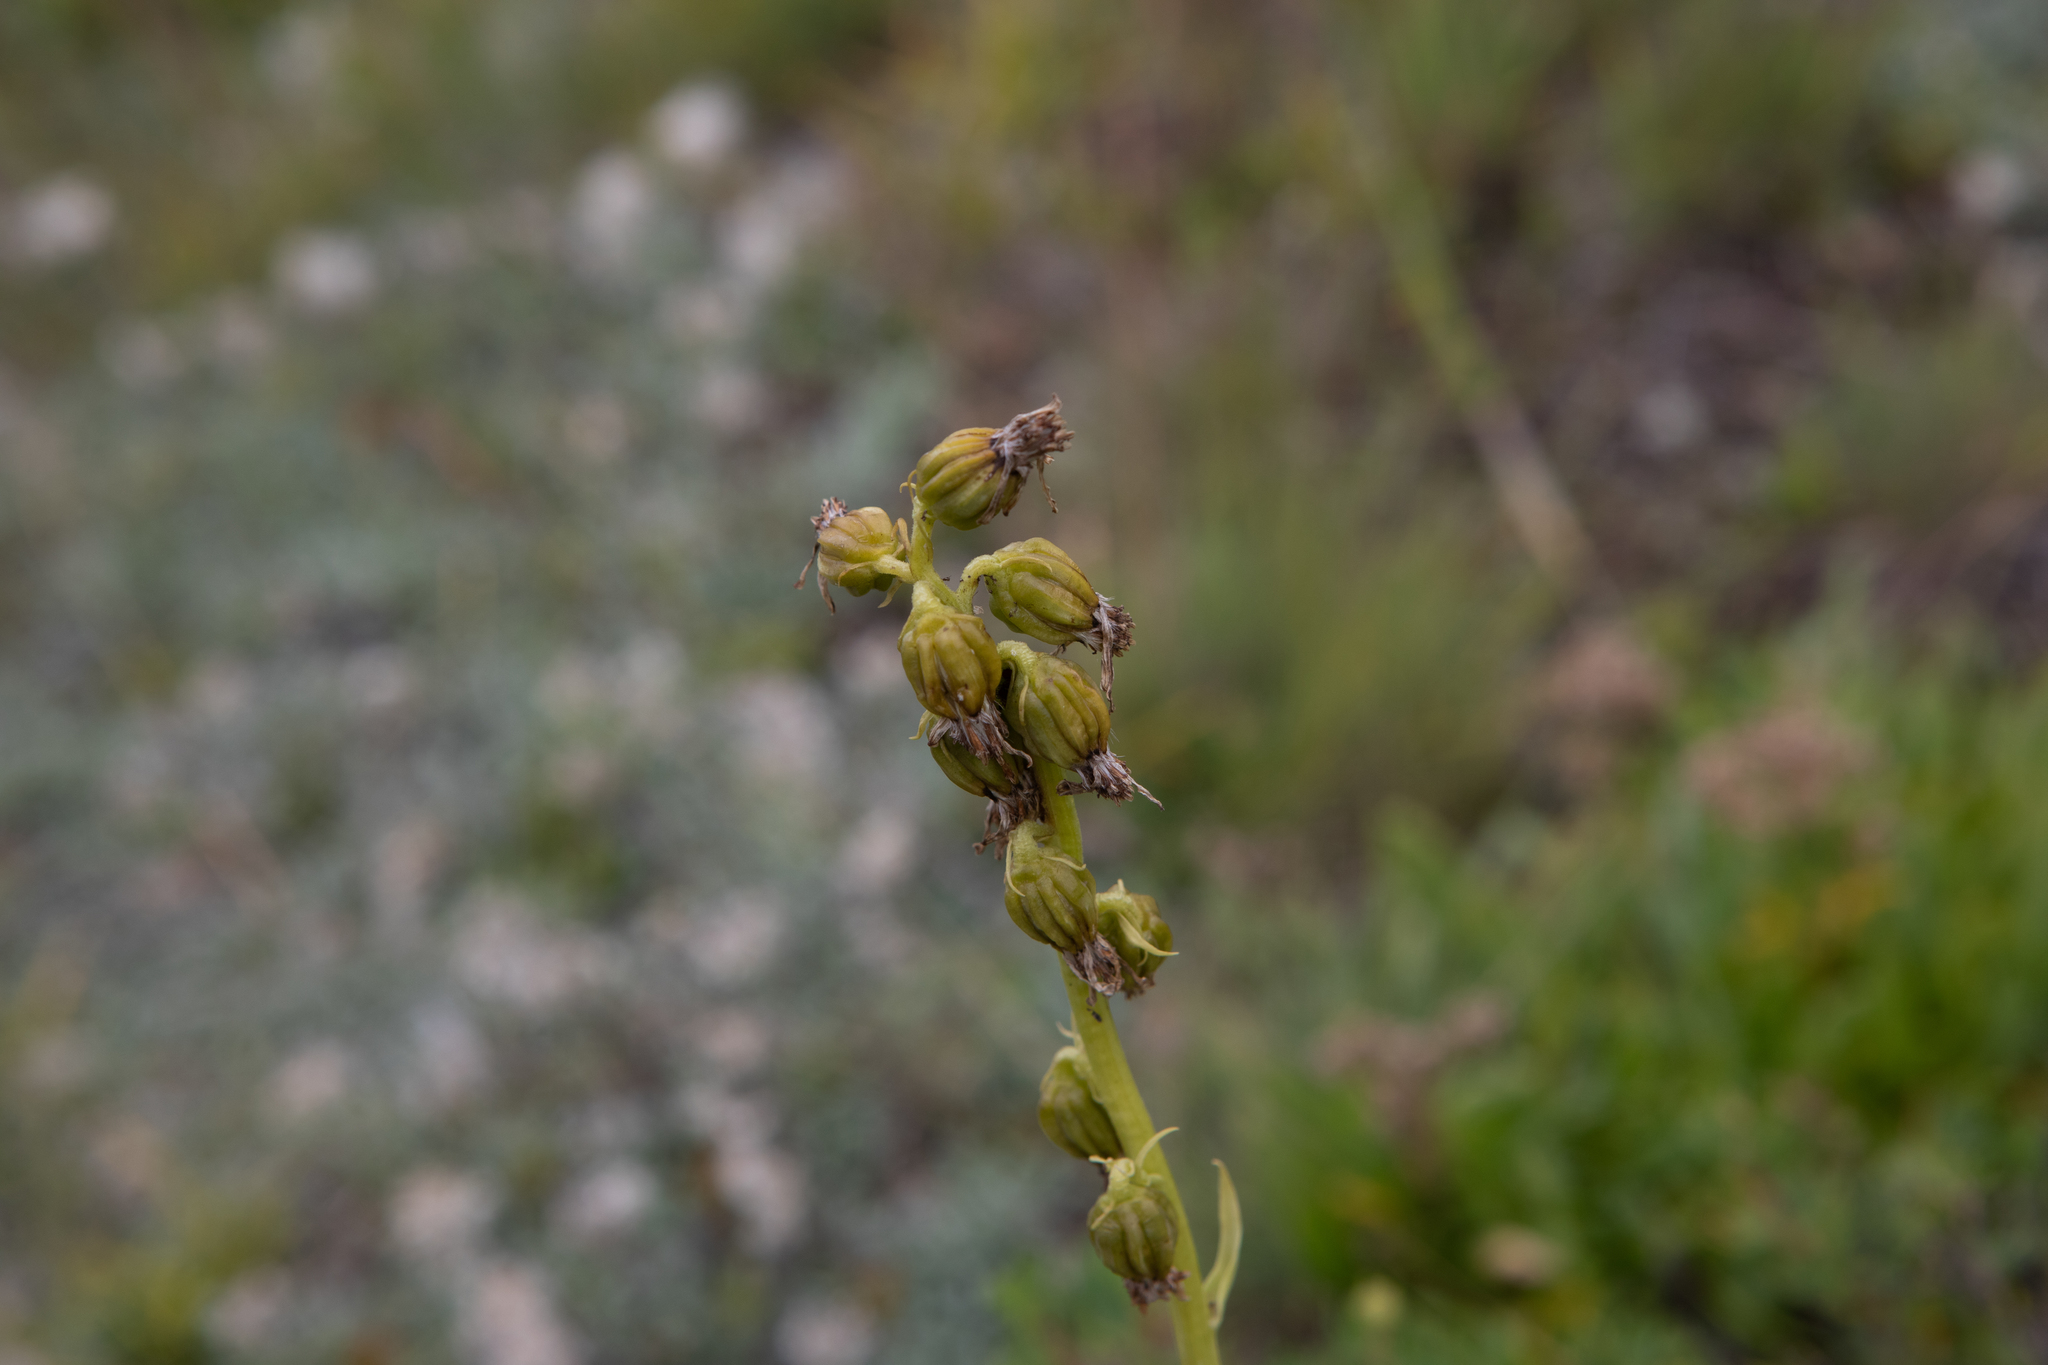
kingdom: Plantae
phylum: Tracheophyta
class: Magnoliopsida
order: Asterales
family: Asteraceae
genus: Ligularia
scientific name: Ligularia glauca
